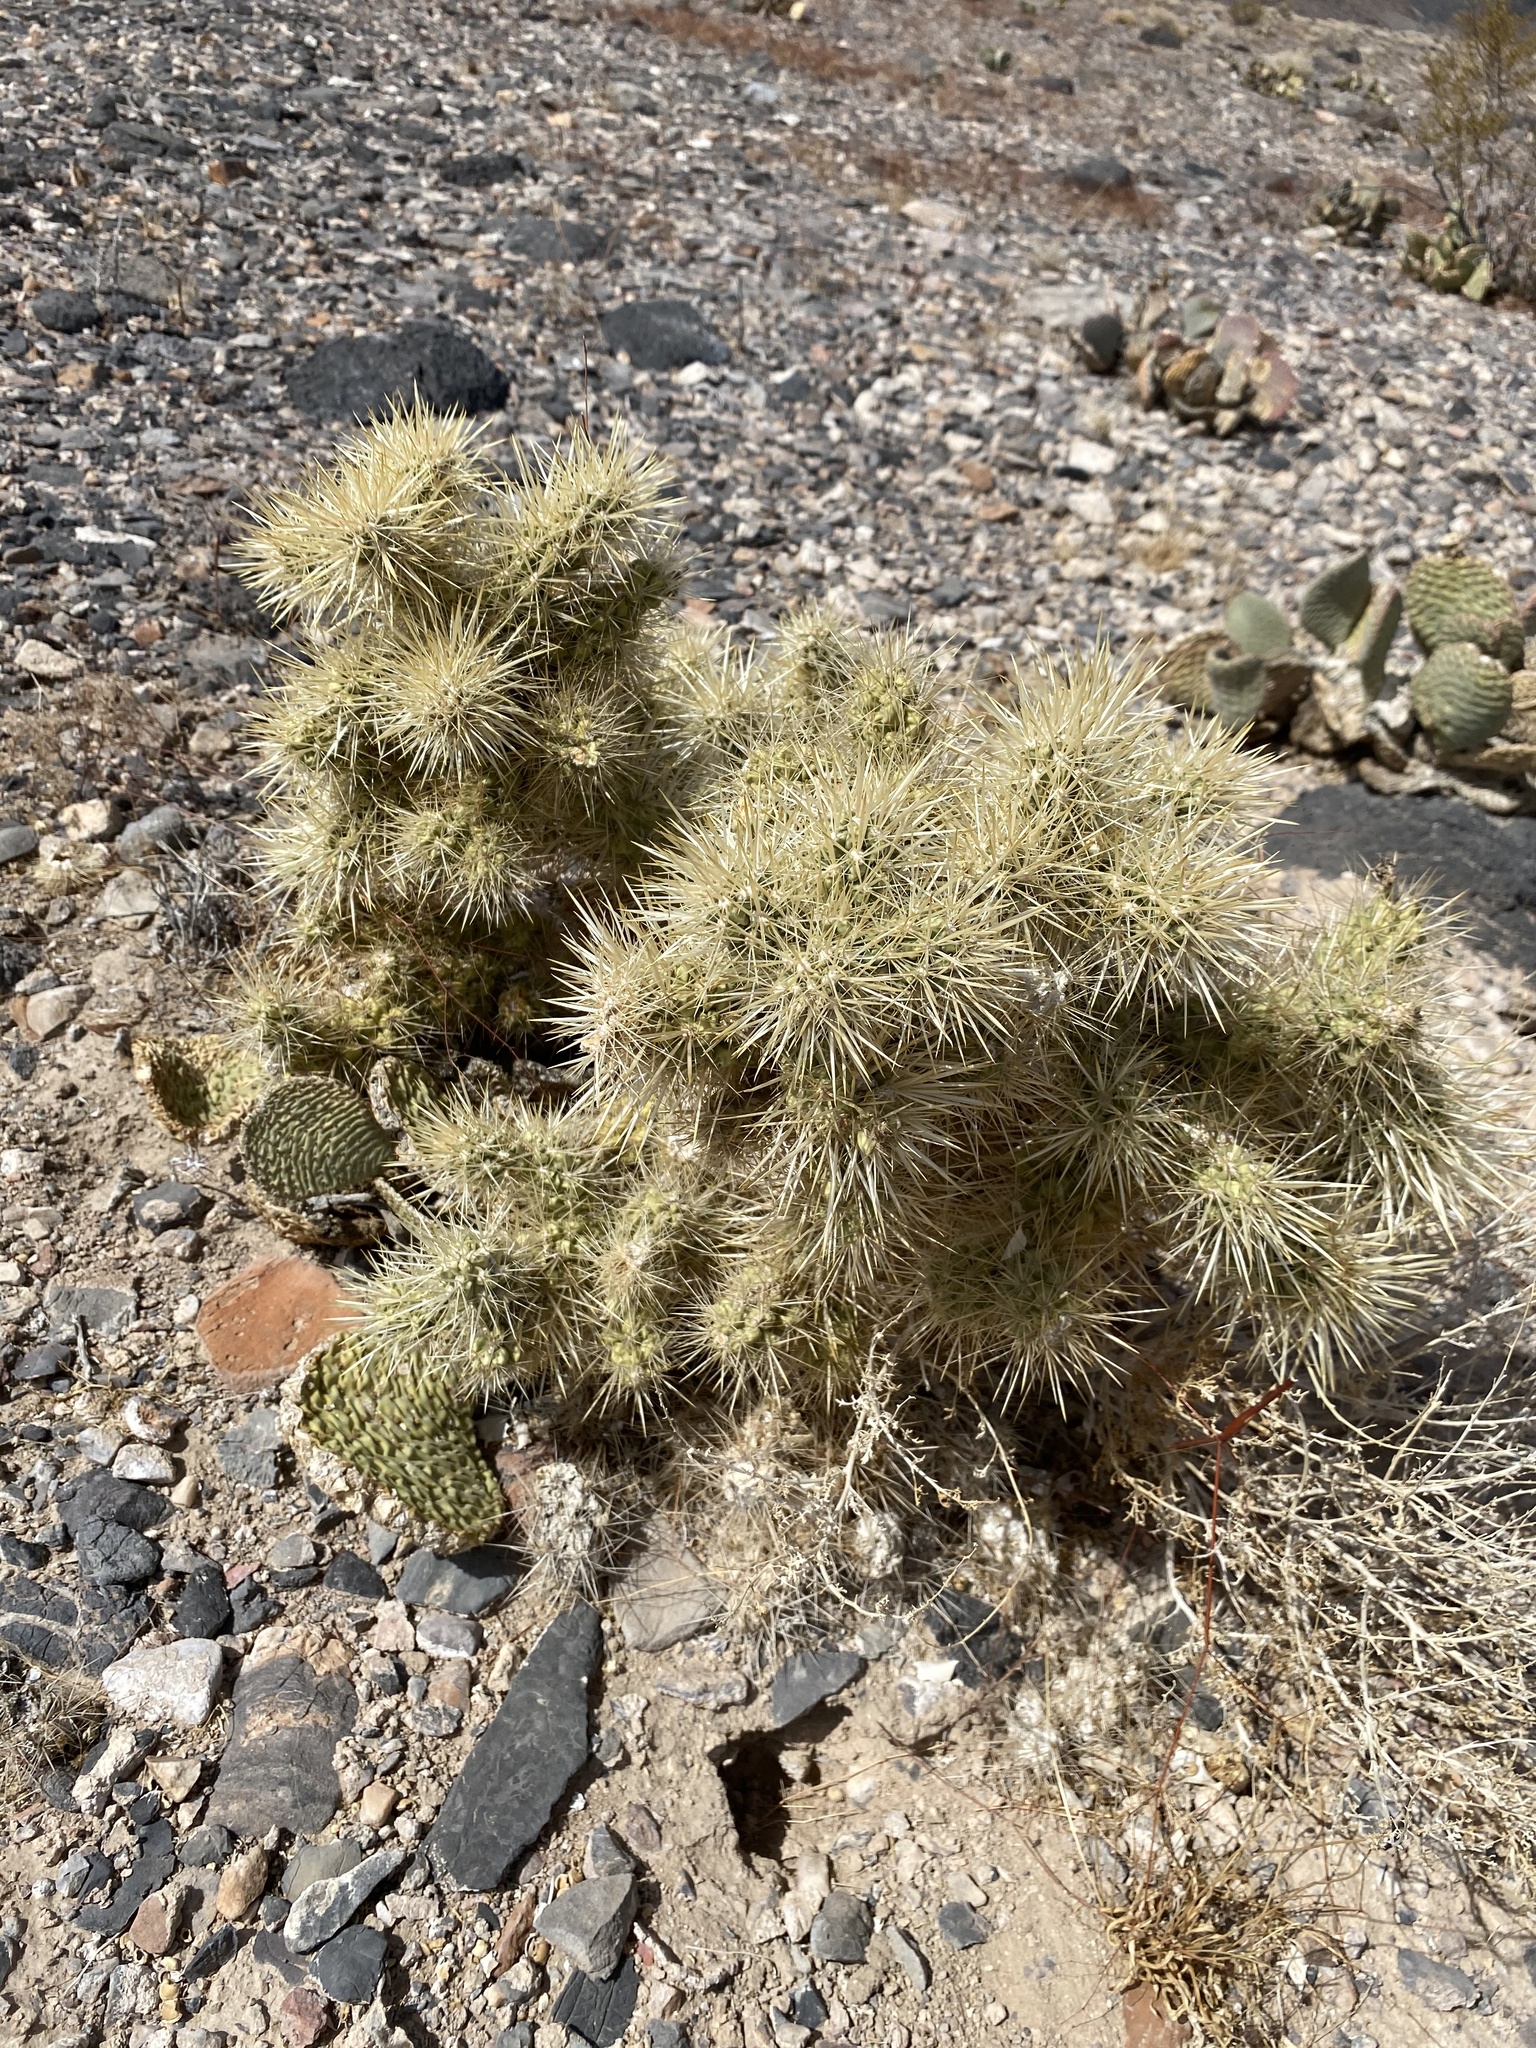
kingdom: Plantae
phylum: Tracheophyta
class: Magnoliopsida
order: Caryophyllales
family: Cactaceae
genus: Cylindropuntia
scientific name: Cylindropuntia echinocarpa
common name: Ground cholla
